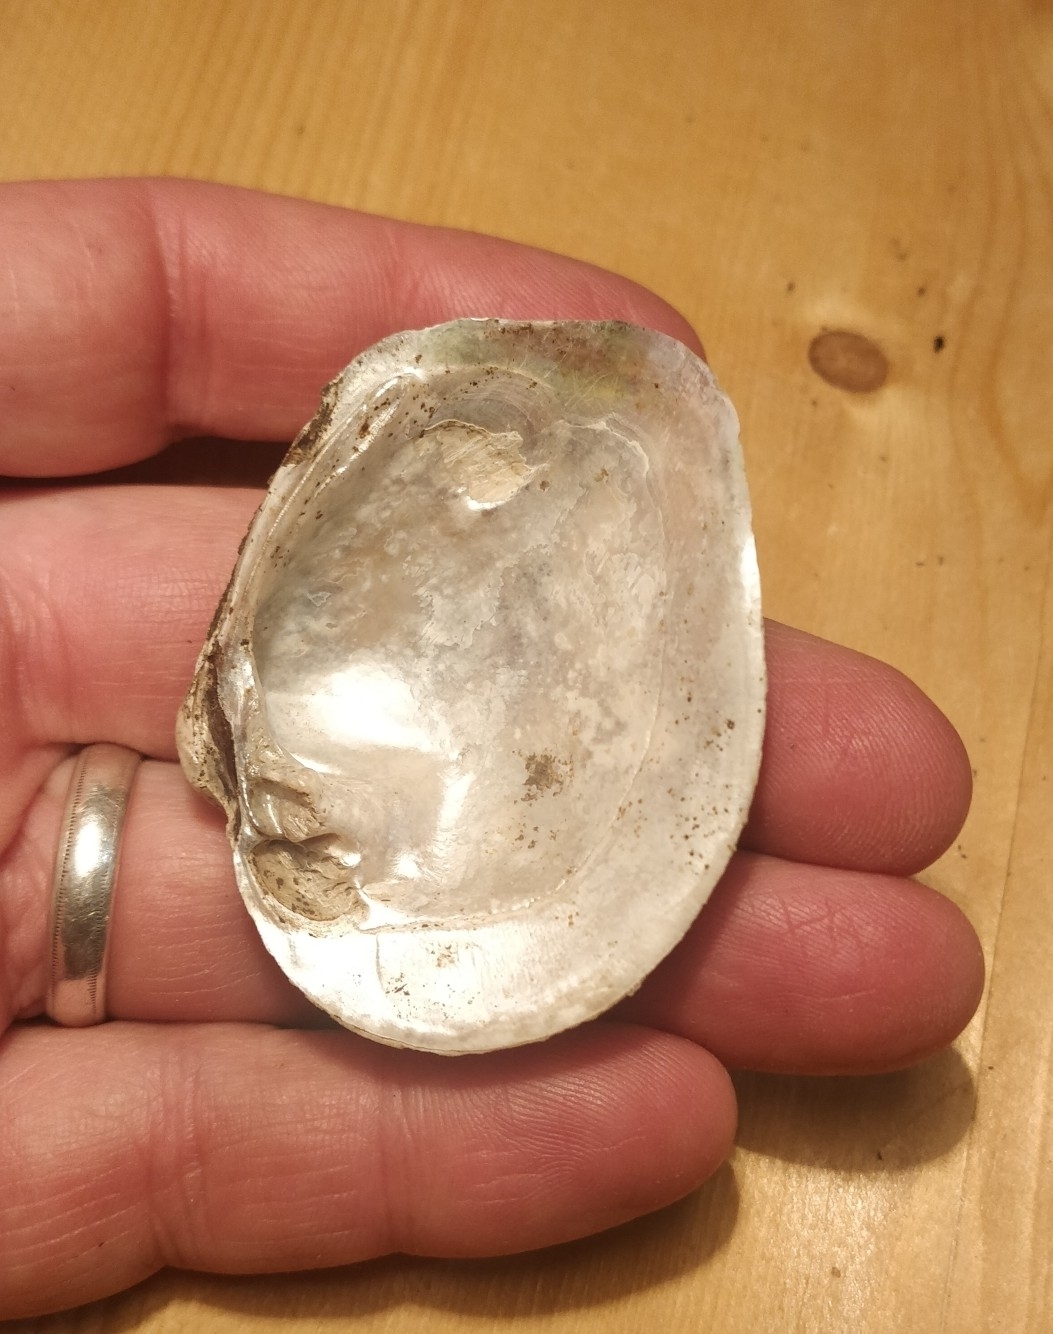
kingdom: Animalia
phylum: Mollusca
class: Bivalvia
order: Unionida
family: Unionidae
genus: Cyclonaias
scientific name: Cyclonaias pustulosa
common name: Pimpleback
